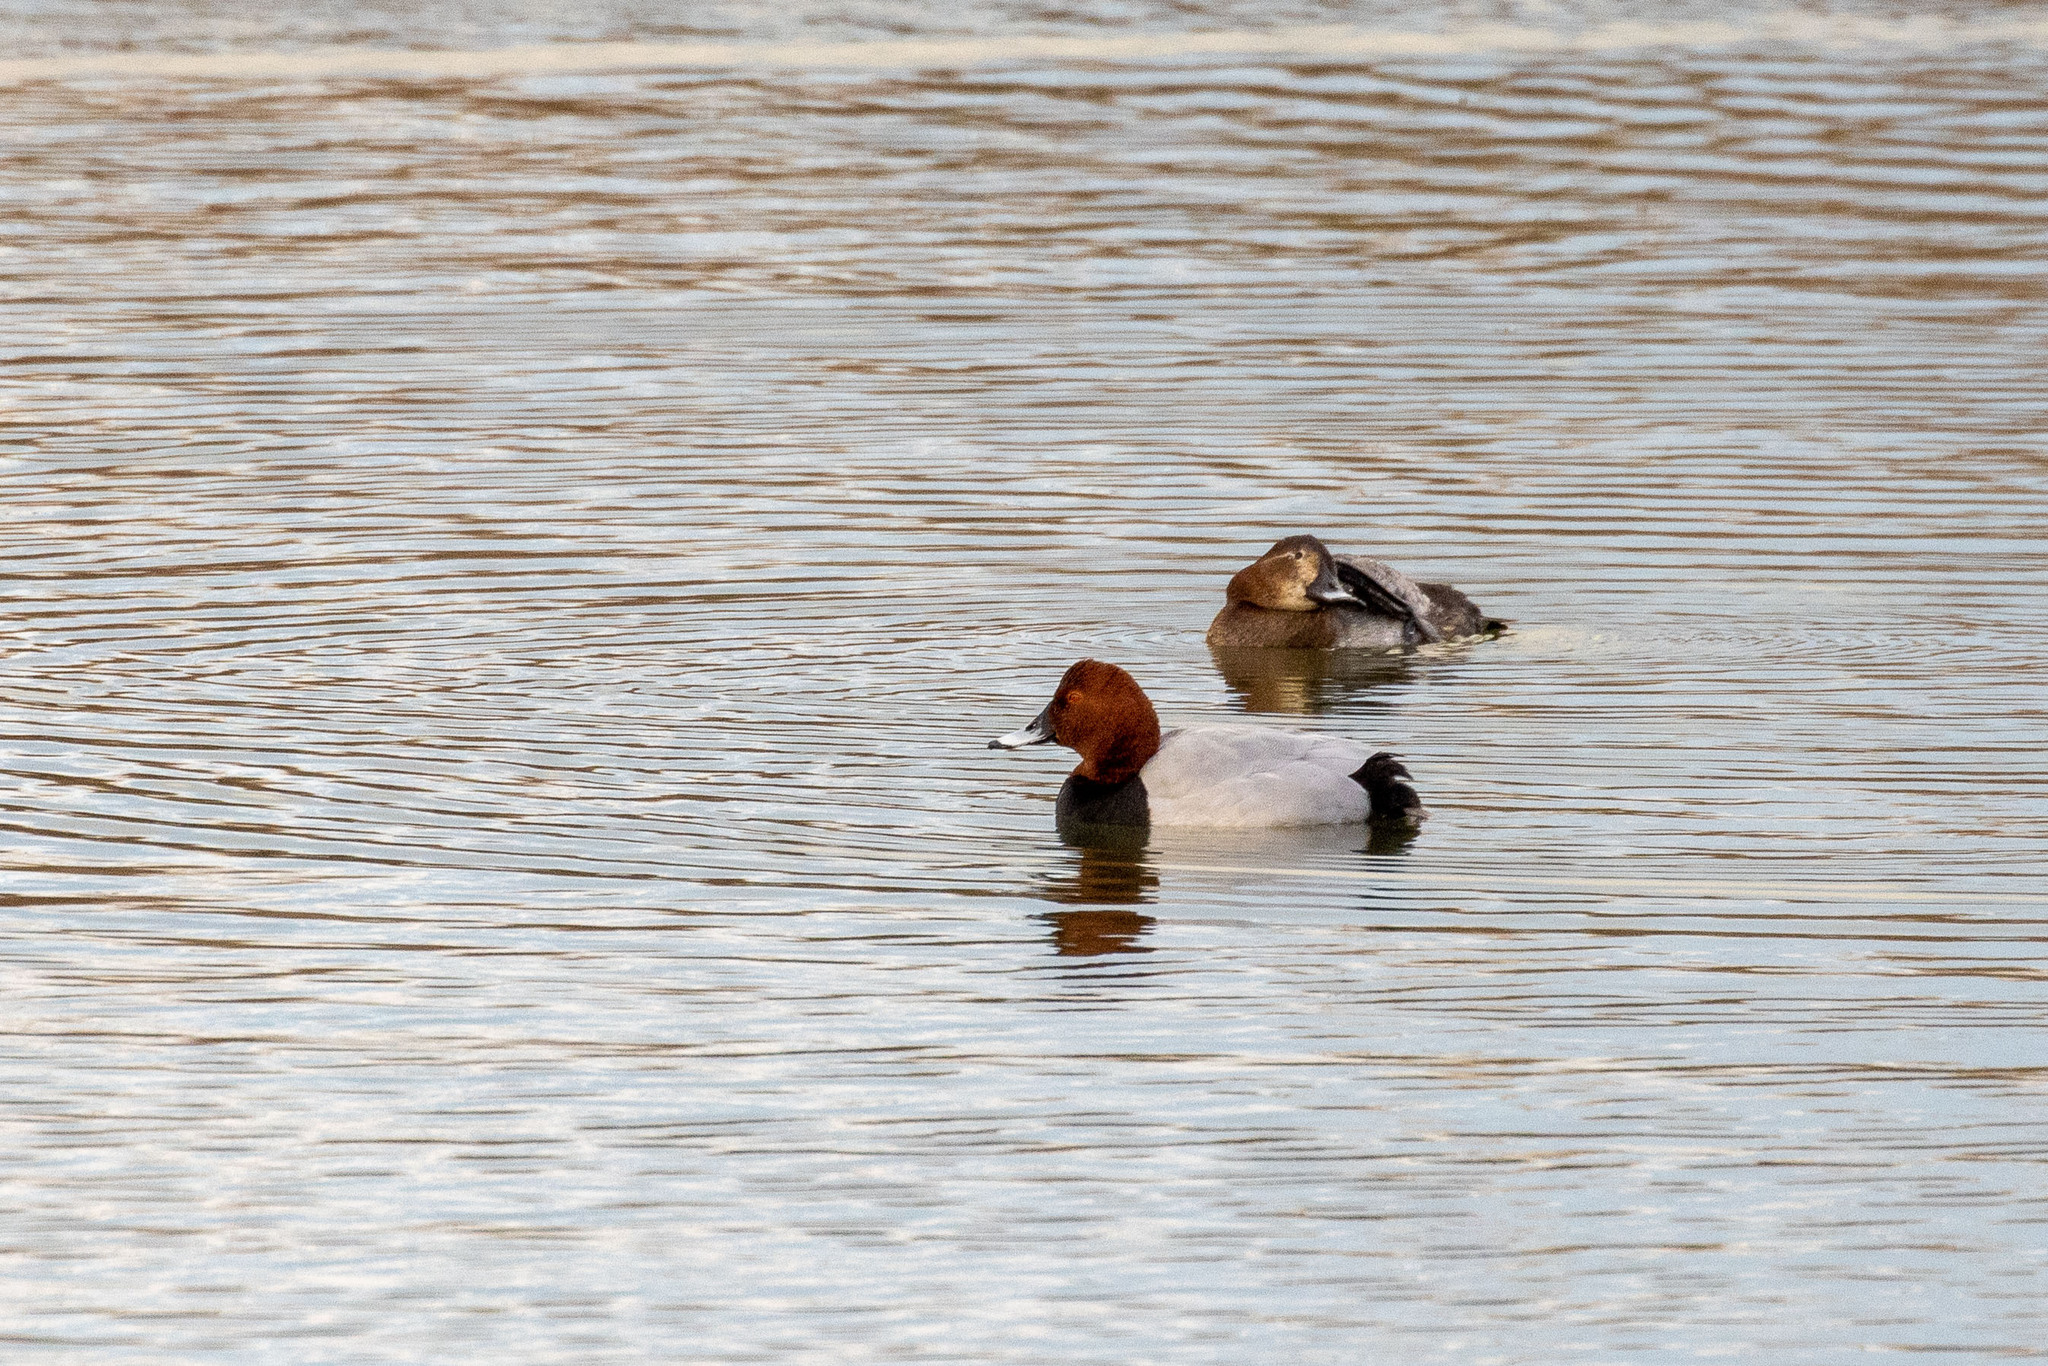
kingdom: Animalia
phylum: Chordata
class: Aves
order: Anseriformes
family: Anatidae
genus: Aythya
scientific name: Aythya ferina
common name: Common pochard
